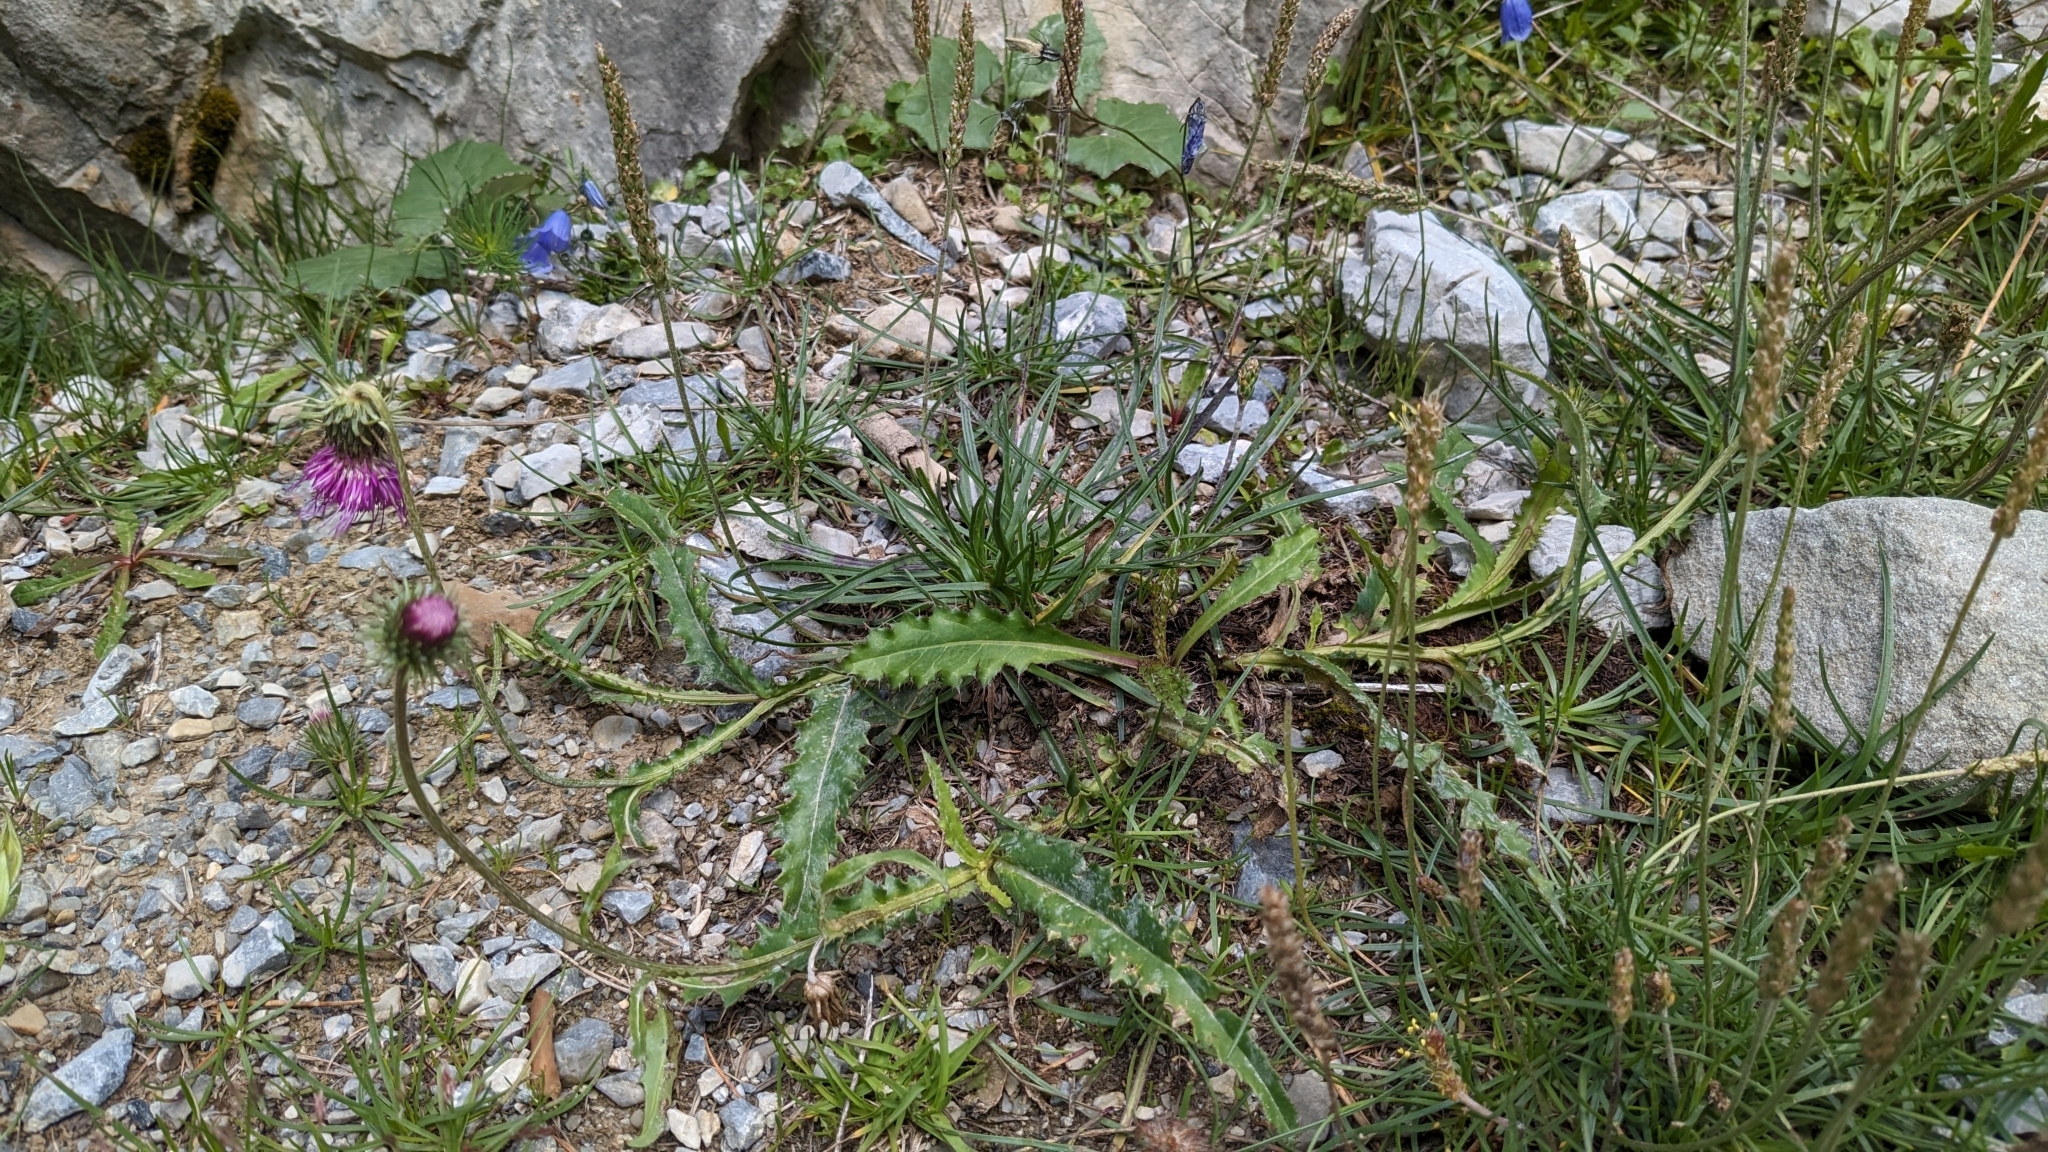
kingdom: Plantae
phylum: Tracheophyta
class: Magnoliopsida
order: Asterales
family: Asteraceae
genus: Carduus
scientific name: Carduus defloratus
